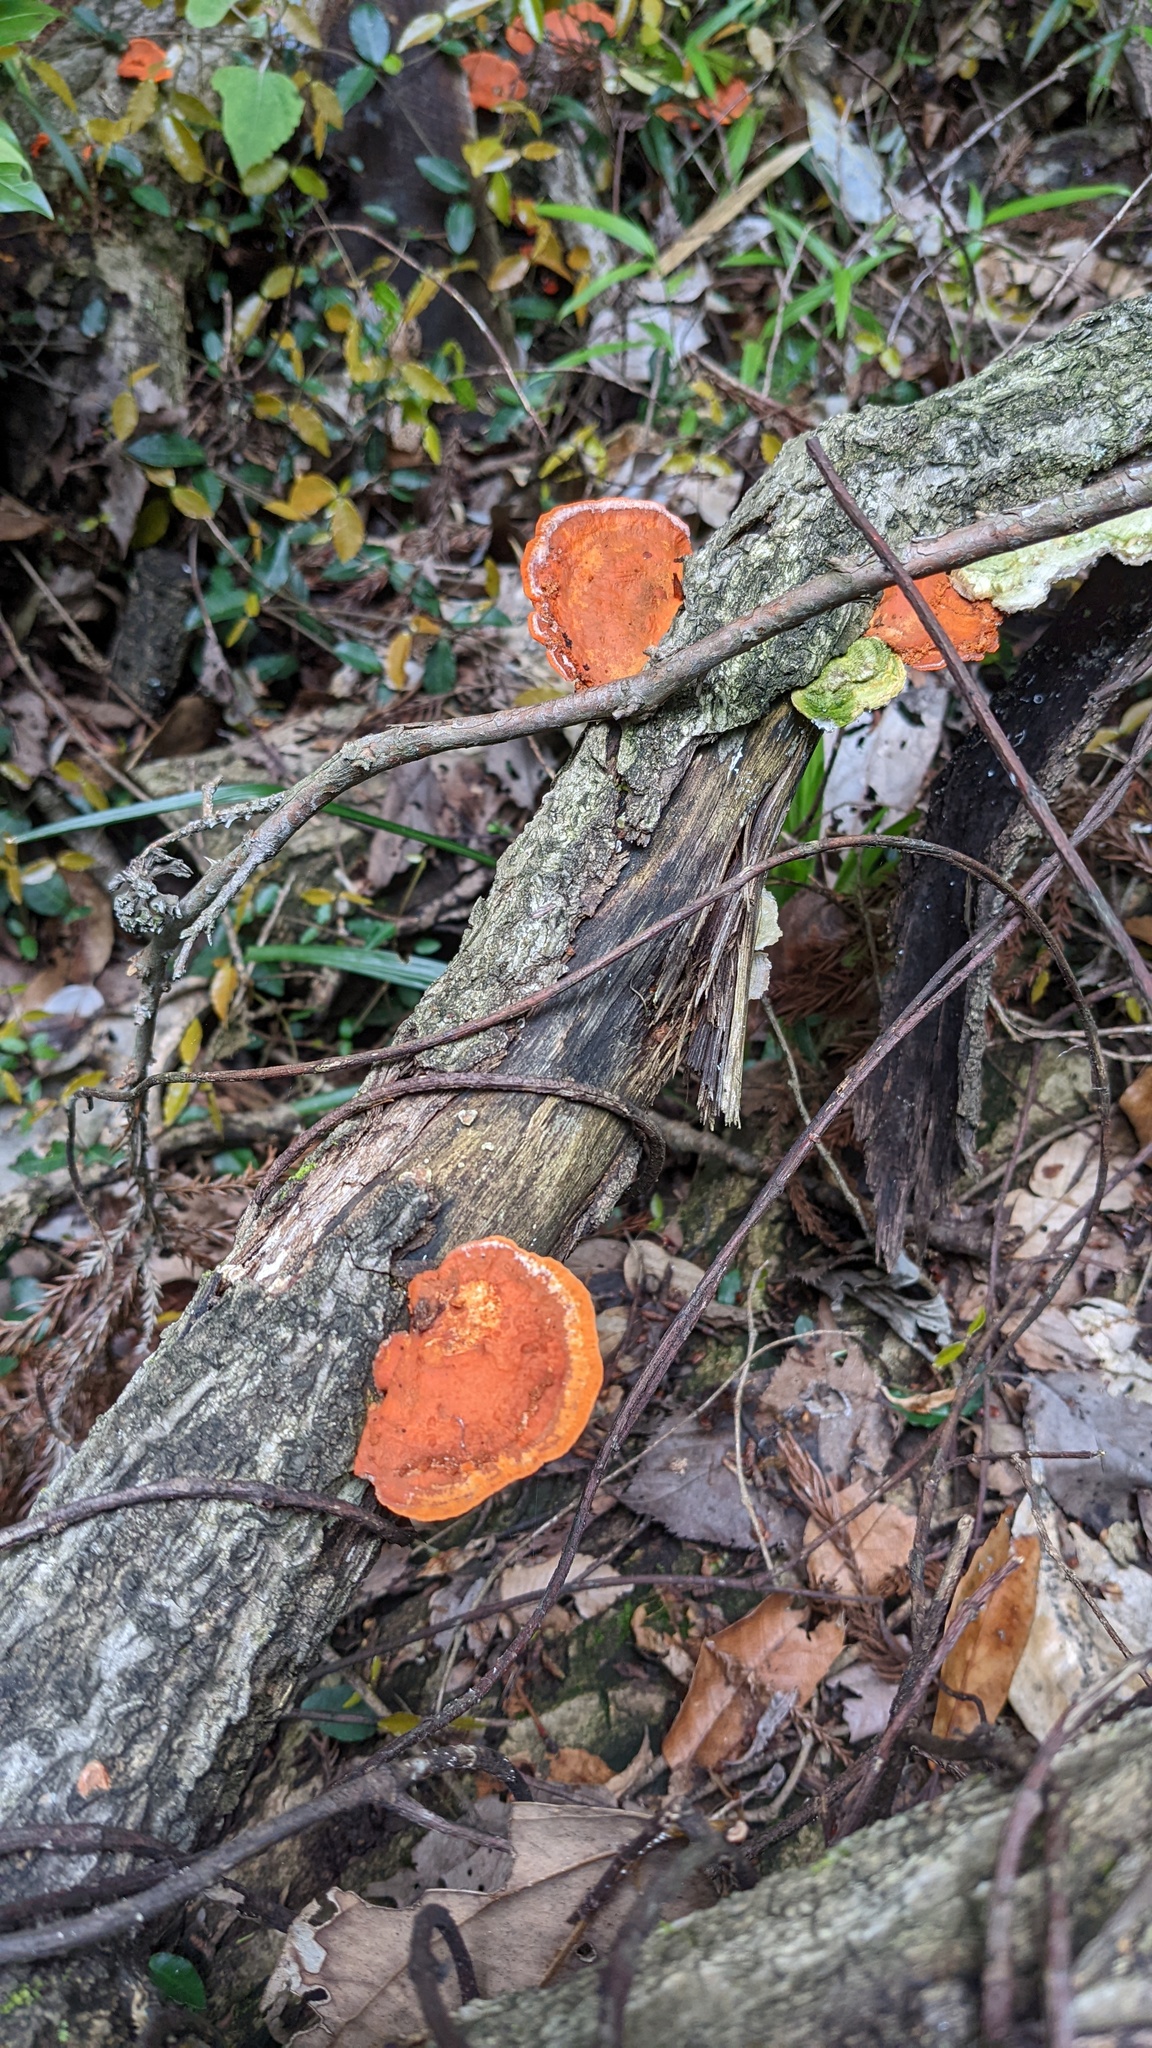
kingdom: Fungi
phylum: Basidiomycota
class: Agaricomycetes
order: Polyporales
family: Polyporaceae
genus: Trametes
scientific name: Trametes coccinea
